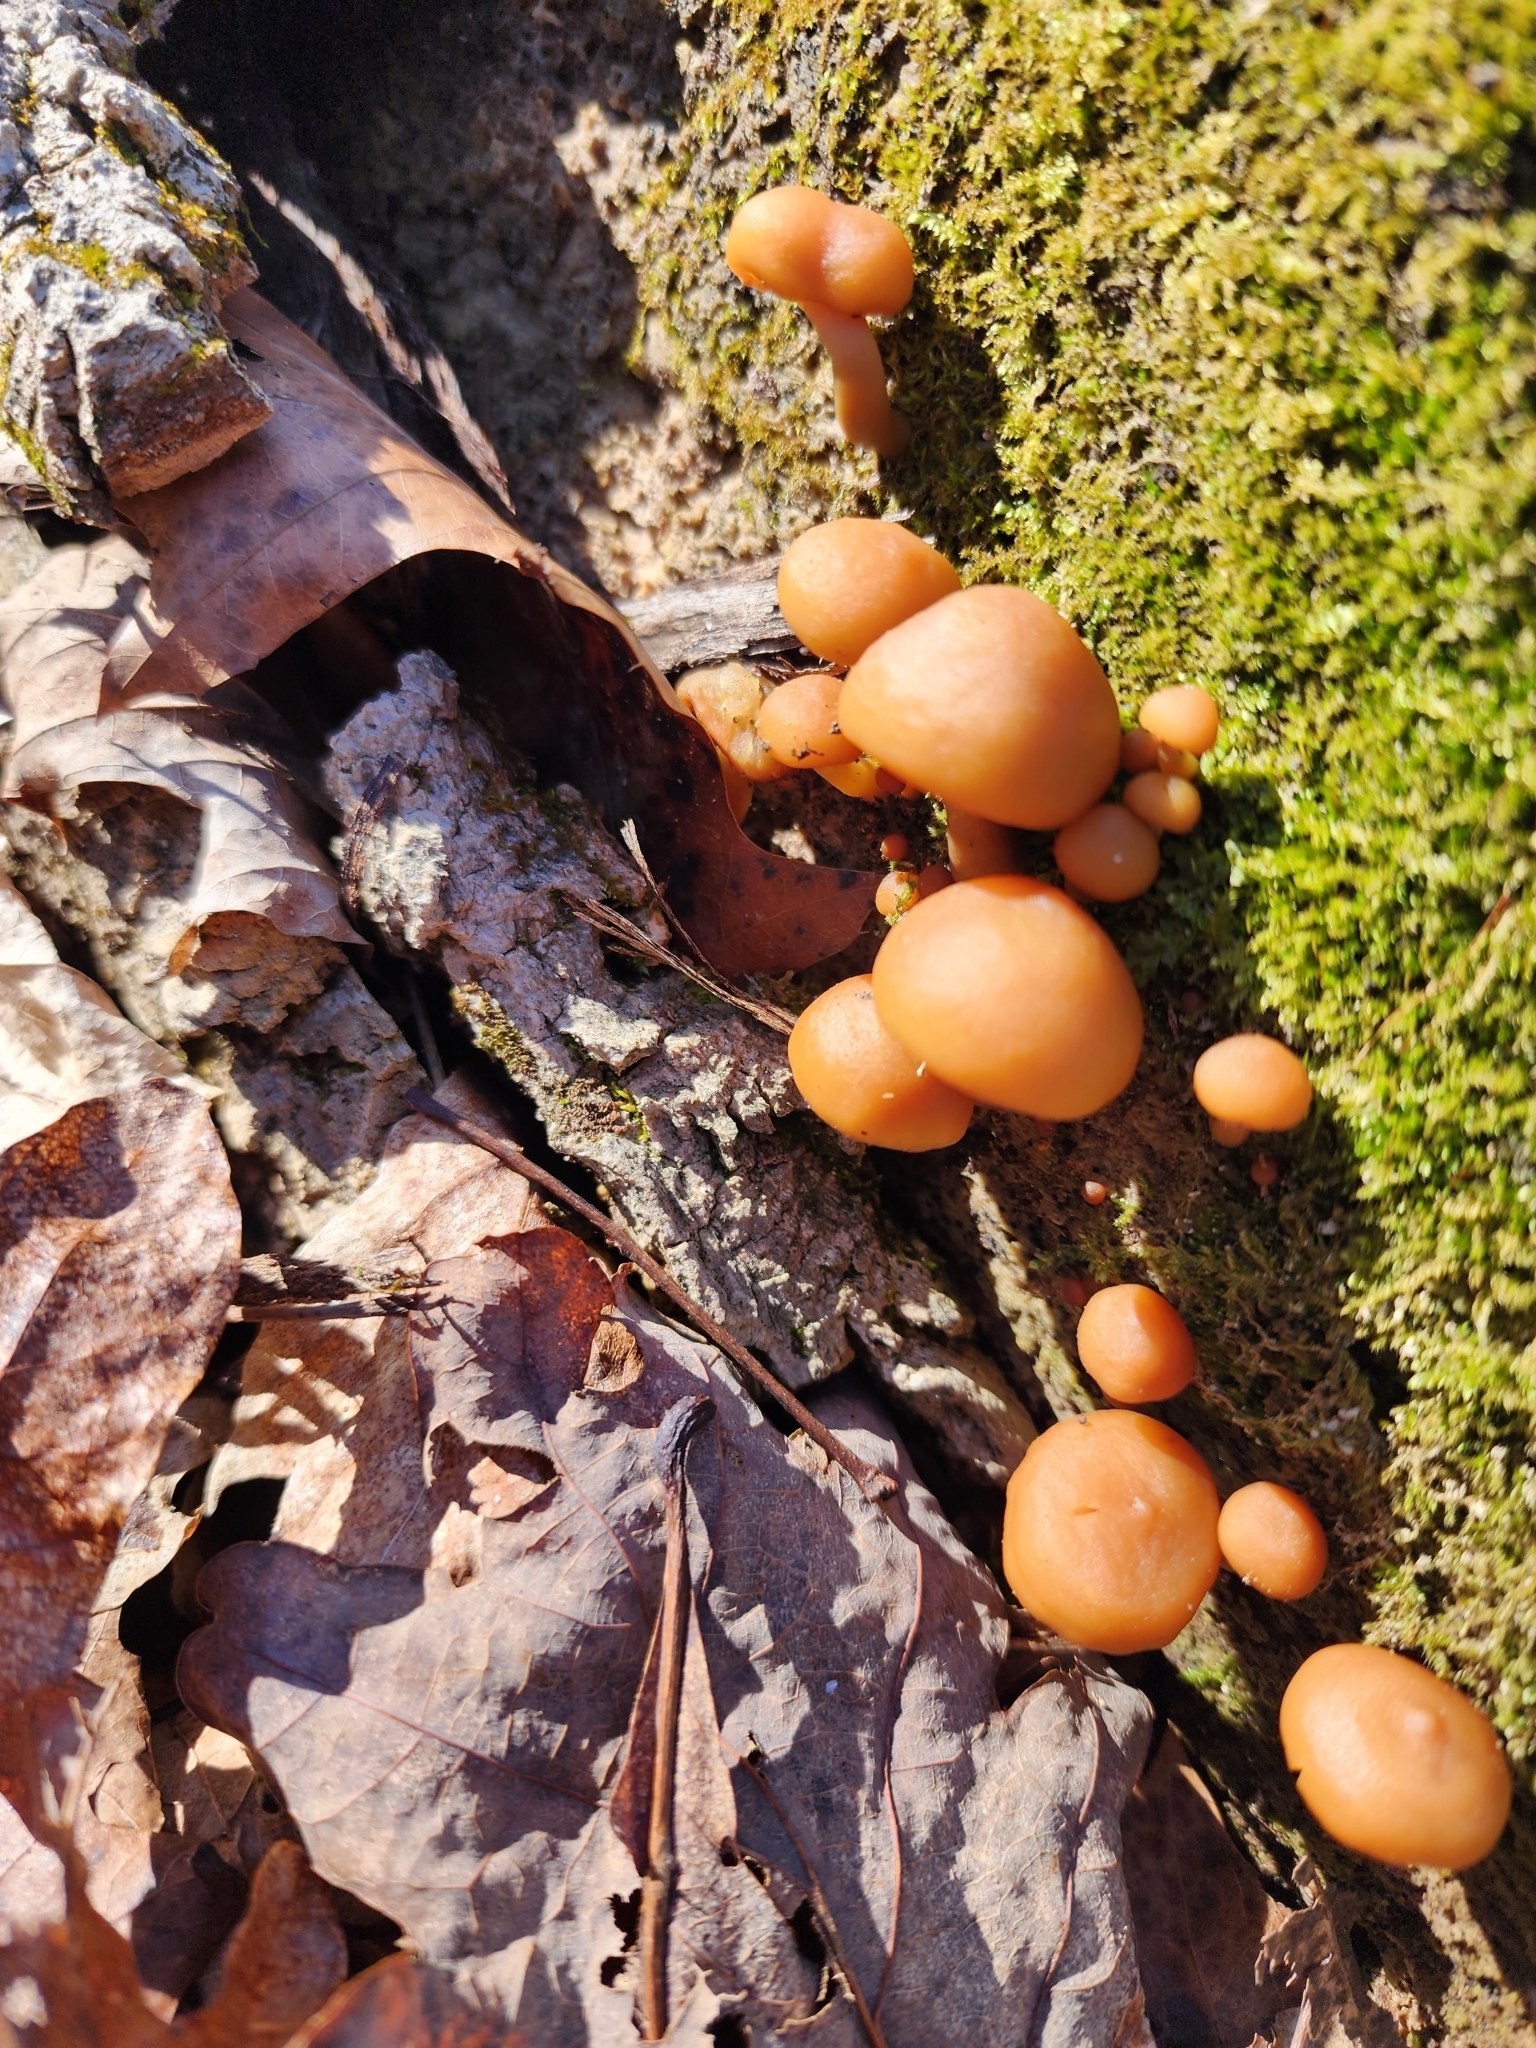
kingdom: Fungi
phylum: Basidiomycota
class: Agaricomycetes
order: Agaricales
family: Hymenogastraceae
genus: Galerina
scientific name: Galerina marginata
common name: Funeral bell
